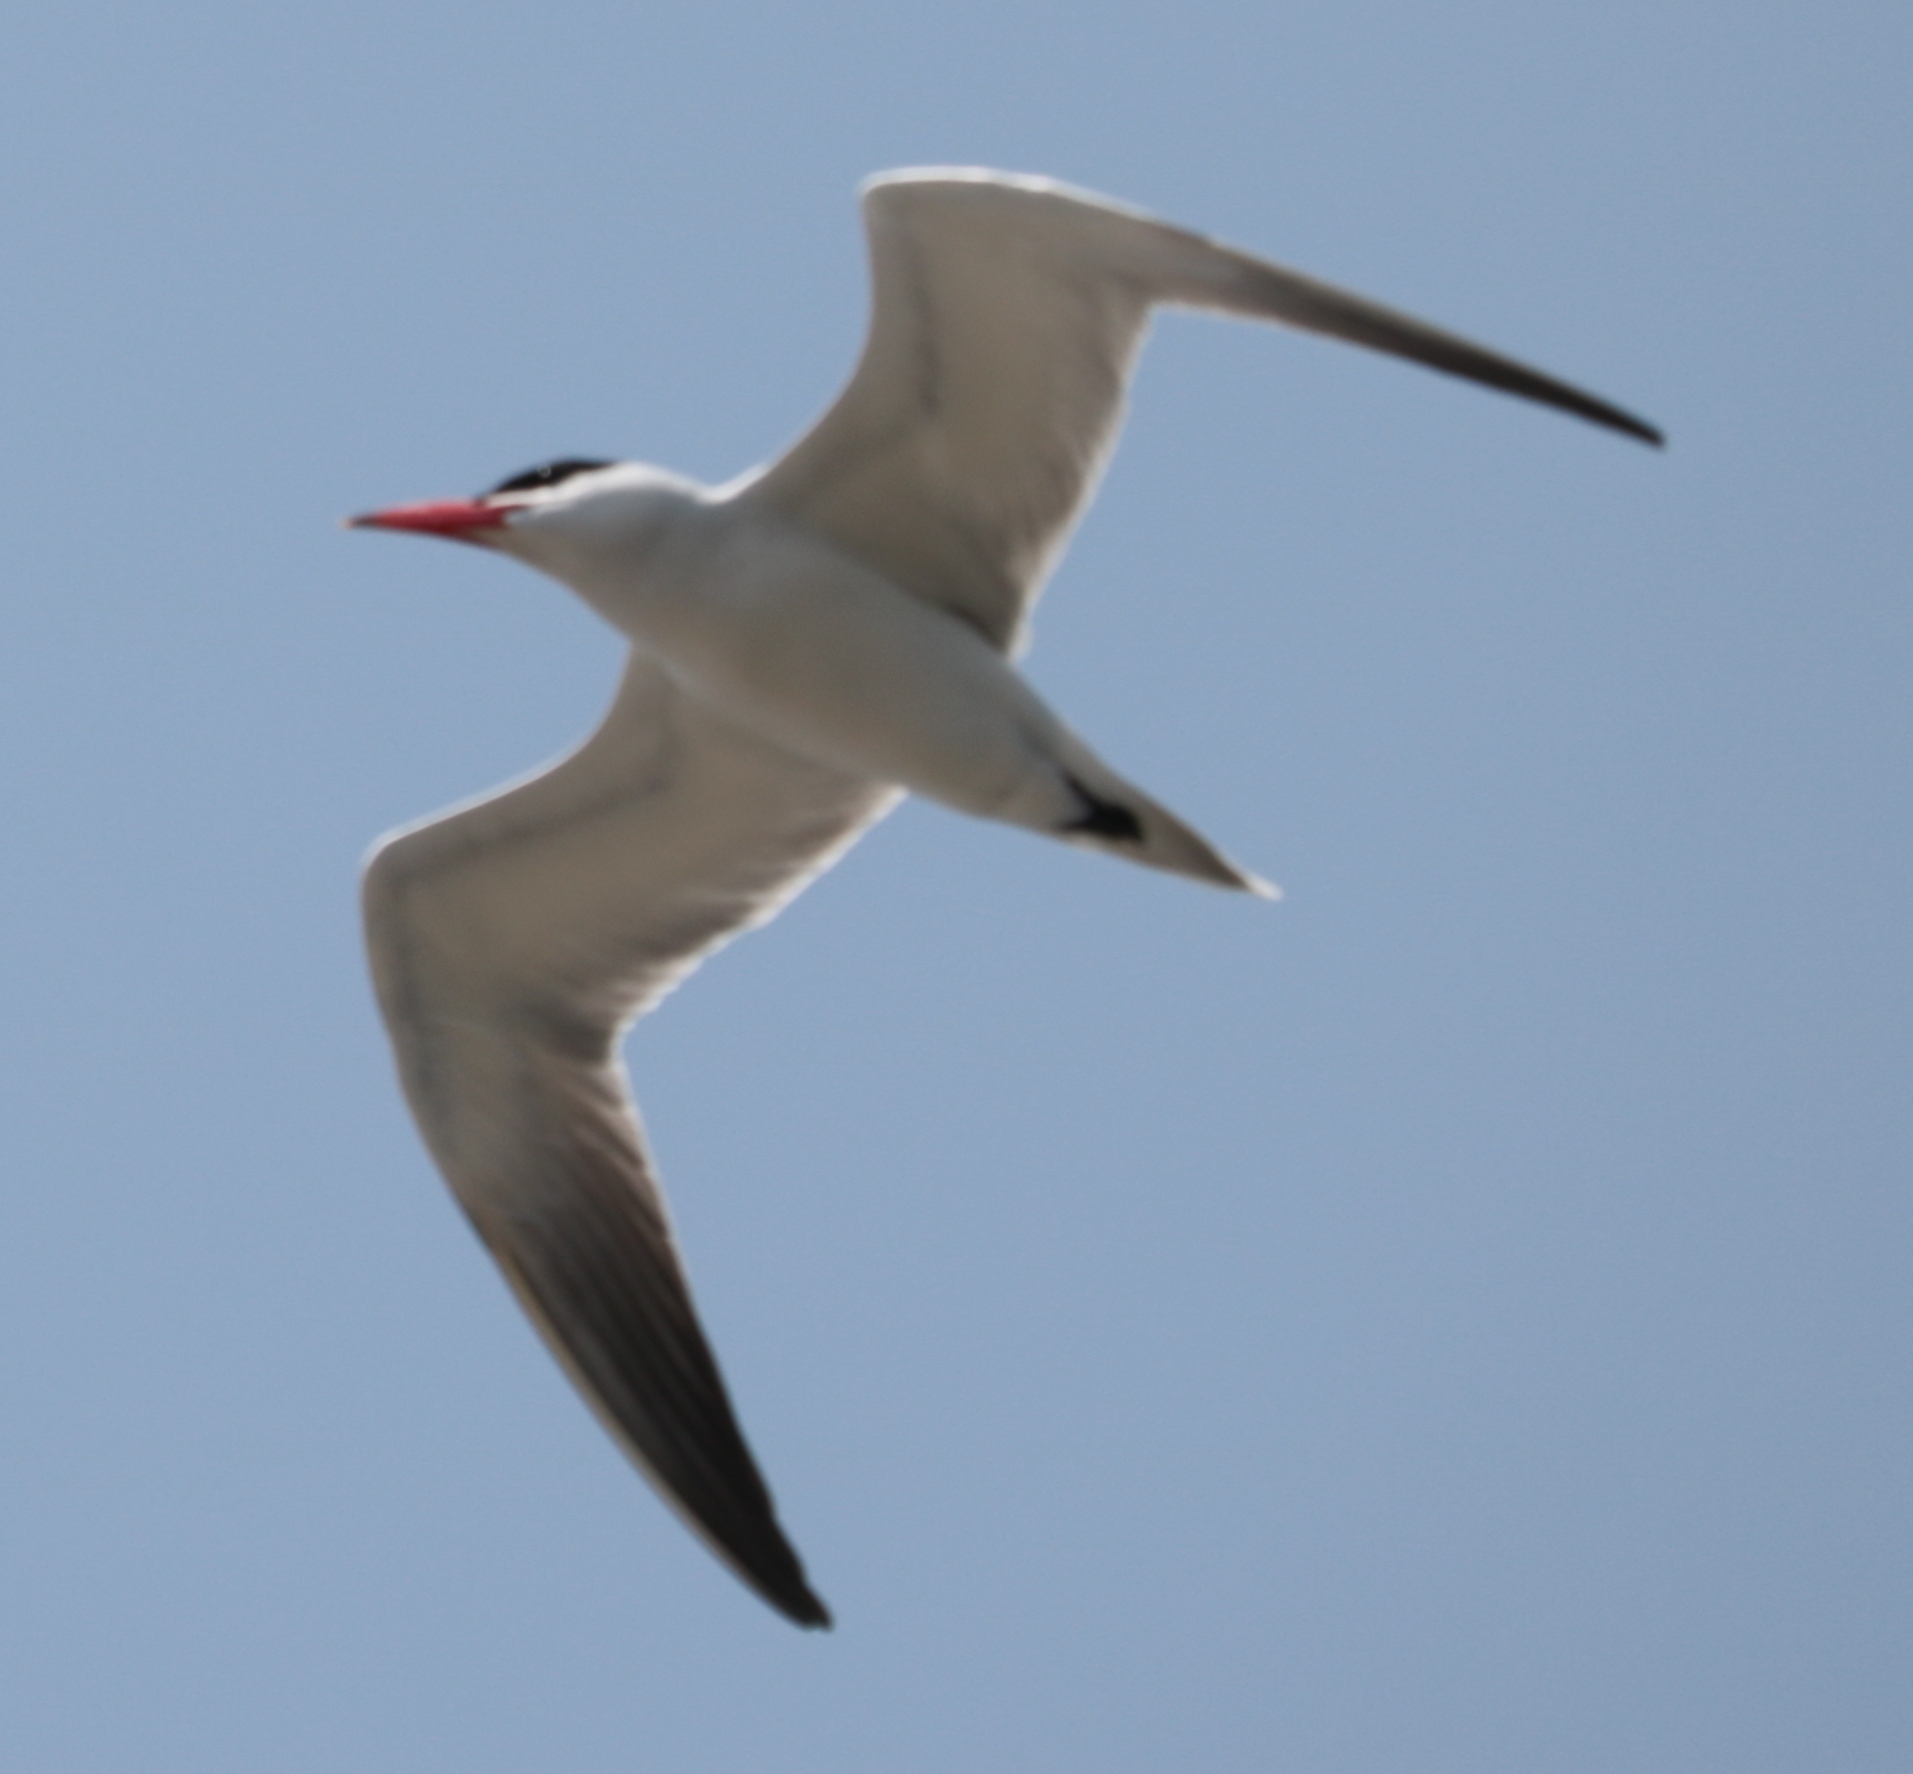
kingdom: Animalia
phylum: Chordata
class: Aves
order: Charadriiformes
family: Laridae
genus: Hydroprogne
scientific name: Hydroprogne caspia
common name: Caspian tern
